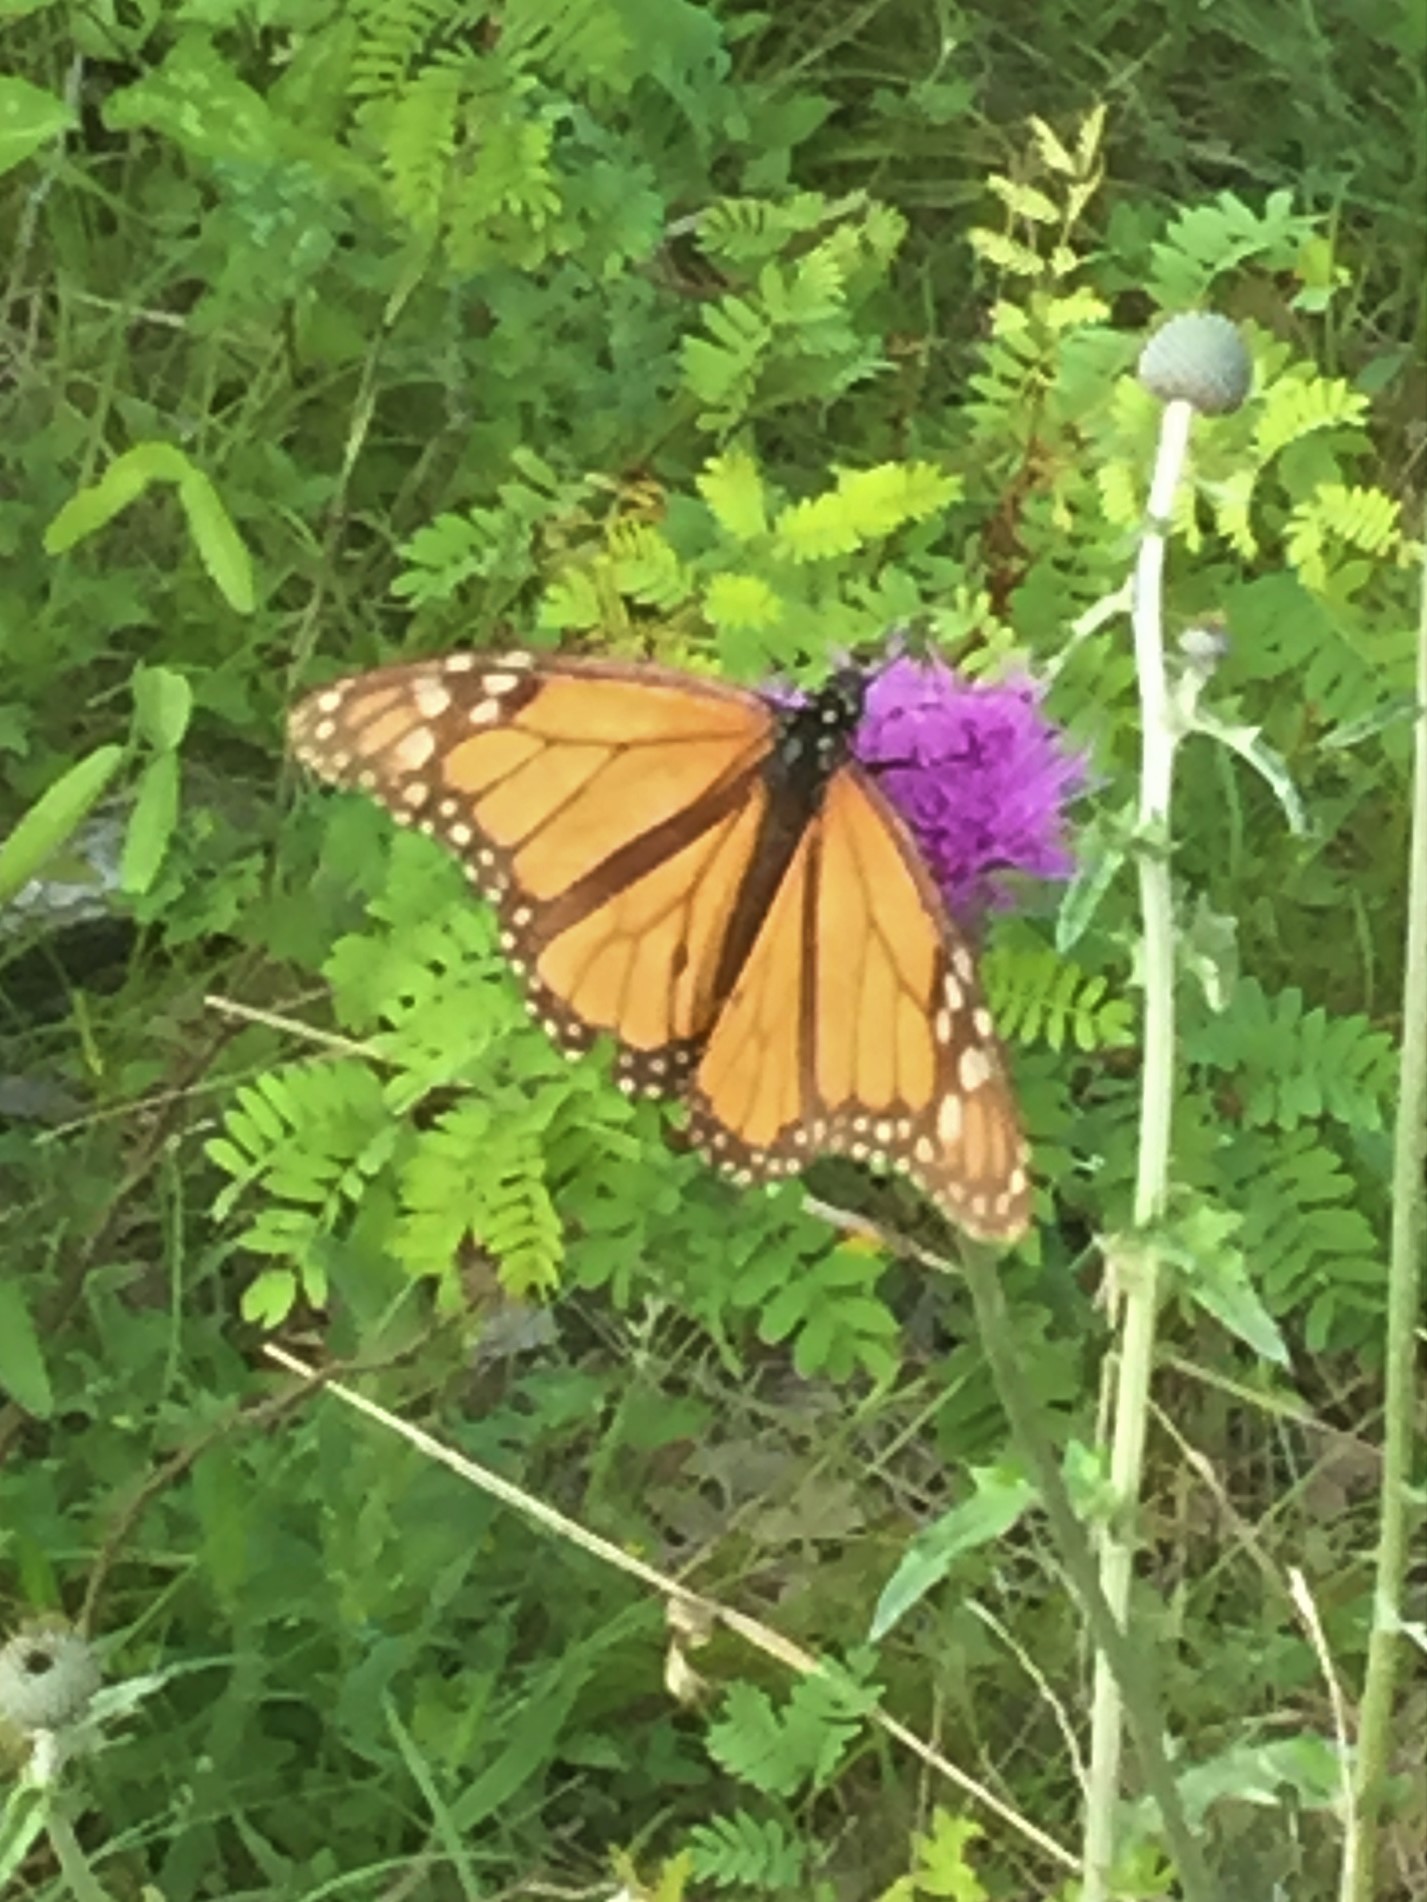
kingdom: Animalia
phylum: Arthropoda
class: Insecta
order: Lepidoptera
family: Nymphalidae
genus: Danaus
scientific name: Danaus plexippus
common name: Monarch
